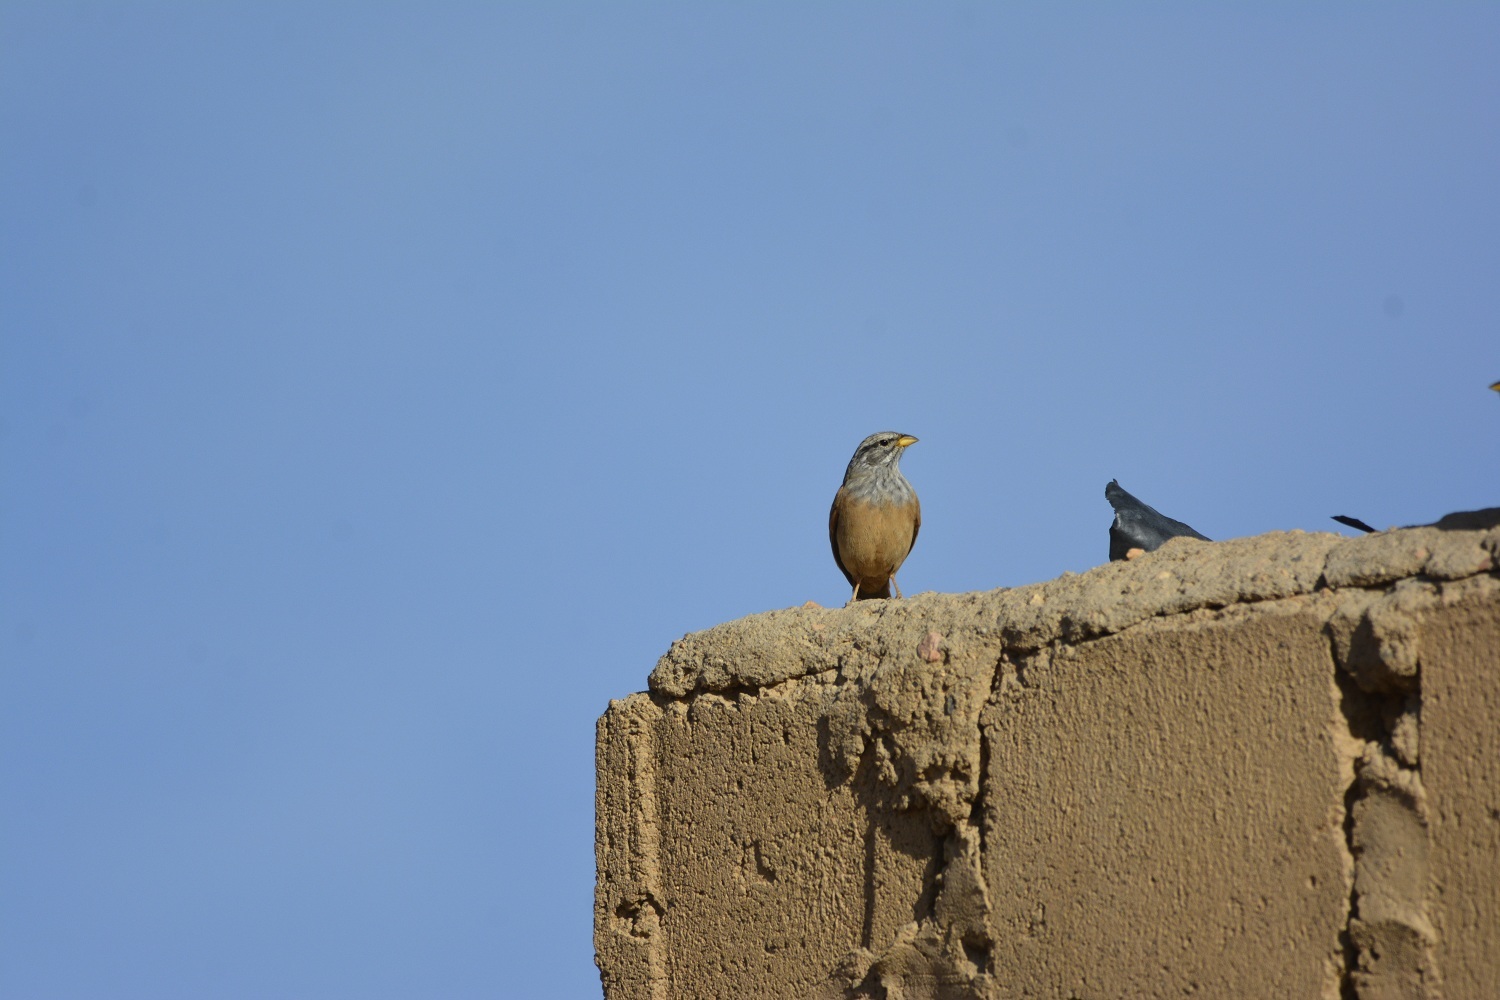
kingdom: Animalia
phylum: Chordata
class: Aves
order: Passeriformes
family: Emberizidae
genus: Emberiza
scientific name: Emberiza sahari
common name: House bunting
